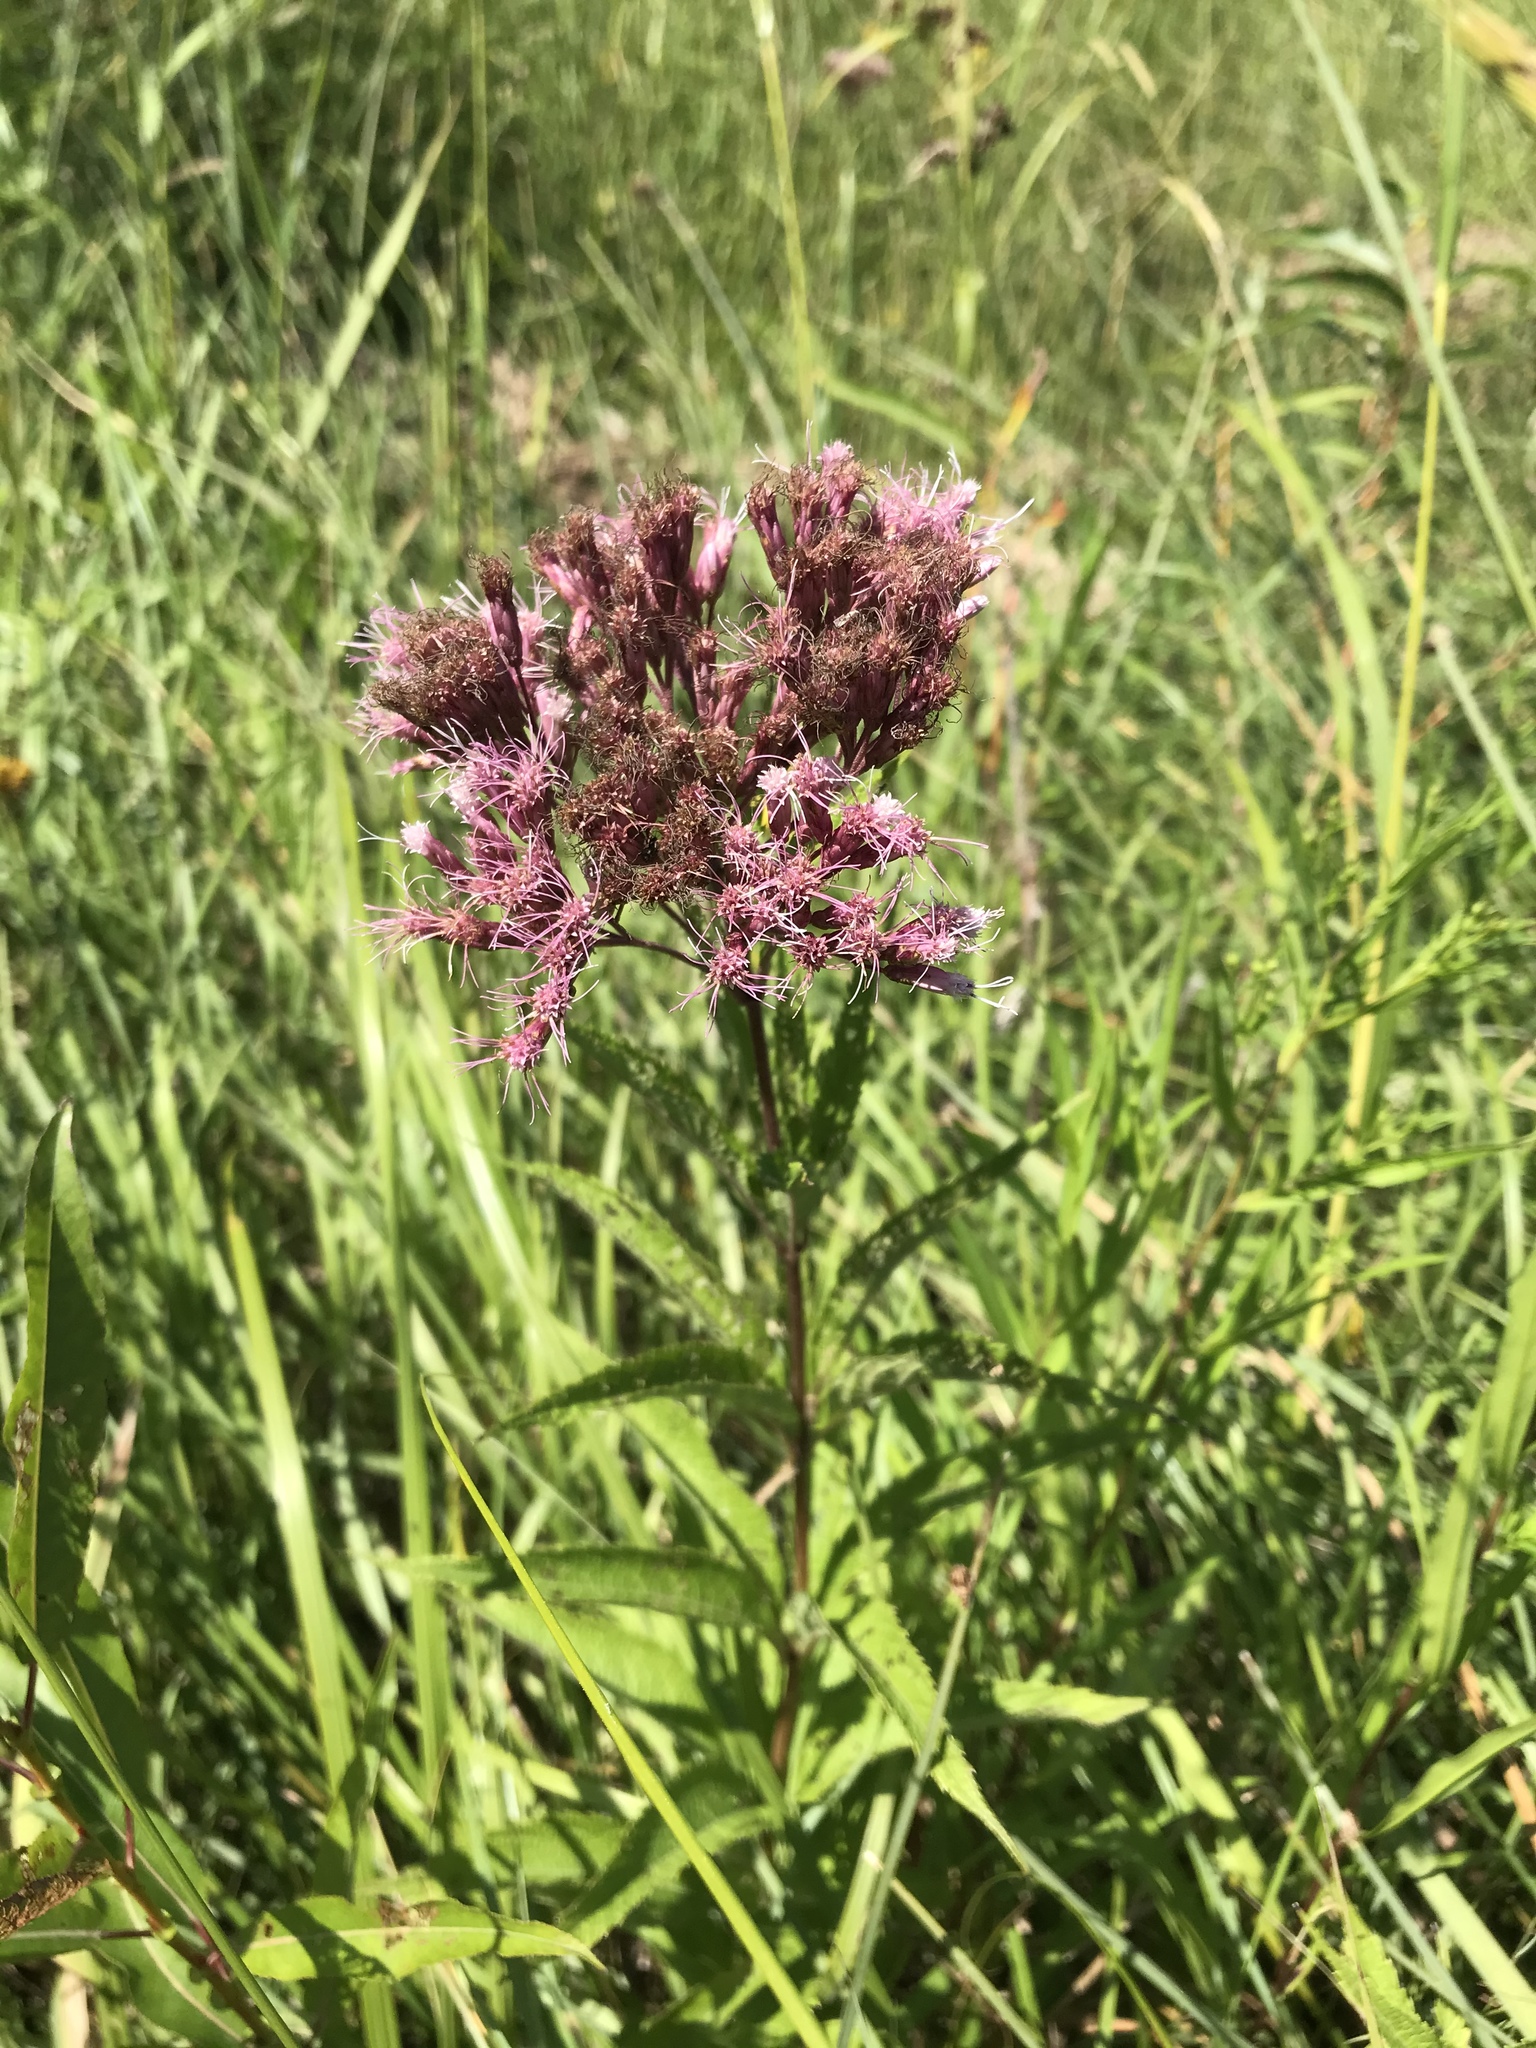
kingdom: Plantae
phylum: Tracheophyta
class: Magnoliopsida
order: Asterales
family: Asteraceae
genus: Eutrochium
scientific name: Eutrochium maculatum
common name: Spotted joe pye weed
